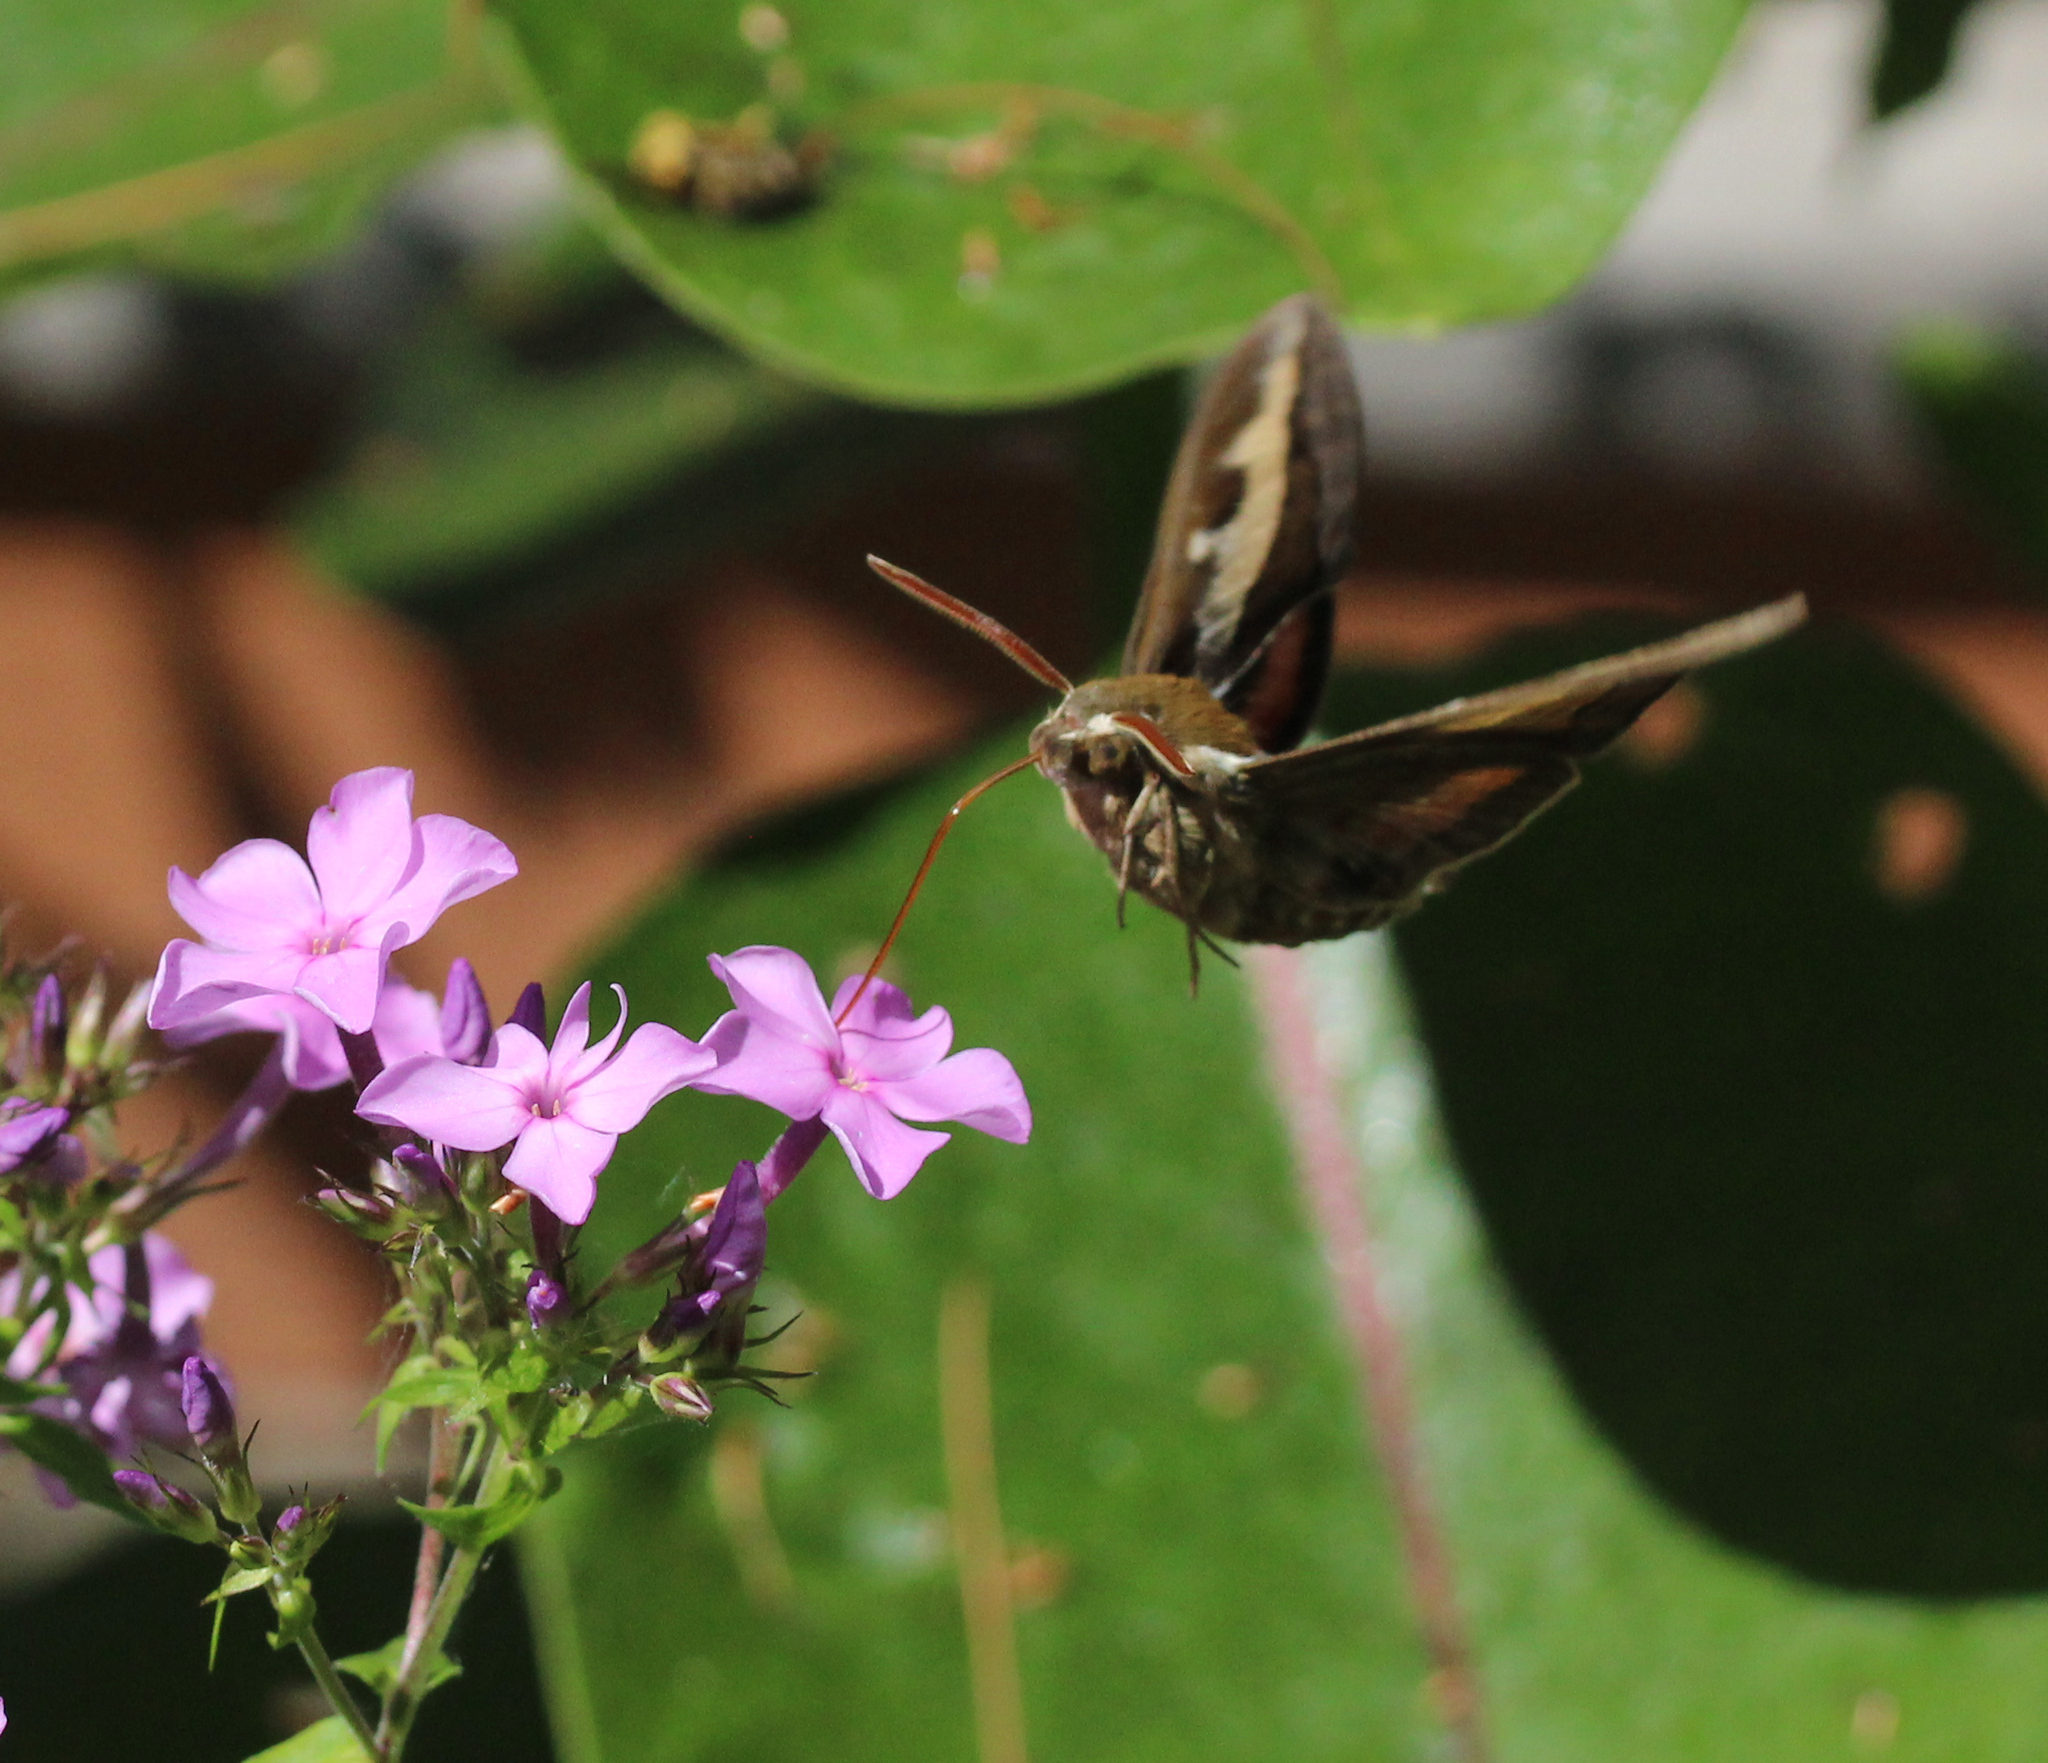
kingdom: Animalia
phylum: Arthropoda
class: Insecta
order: Lepidoptera
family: Sphingidae
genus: Hyles
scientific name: Hyles gallii
